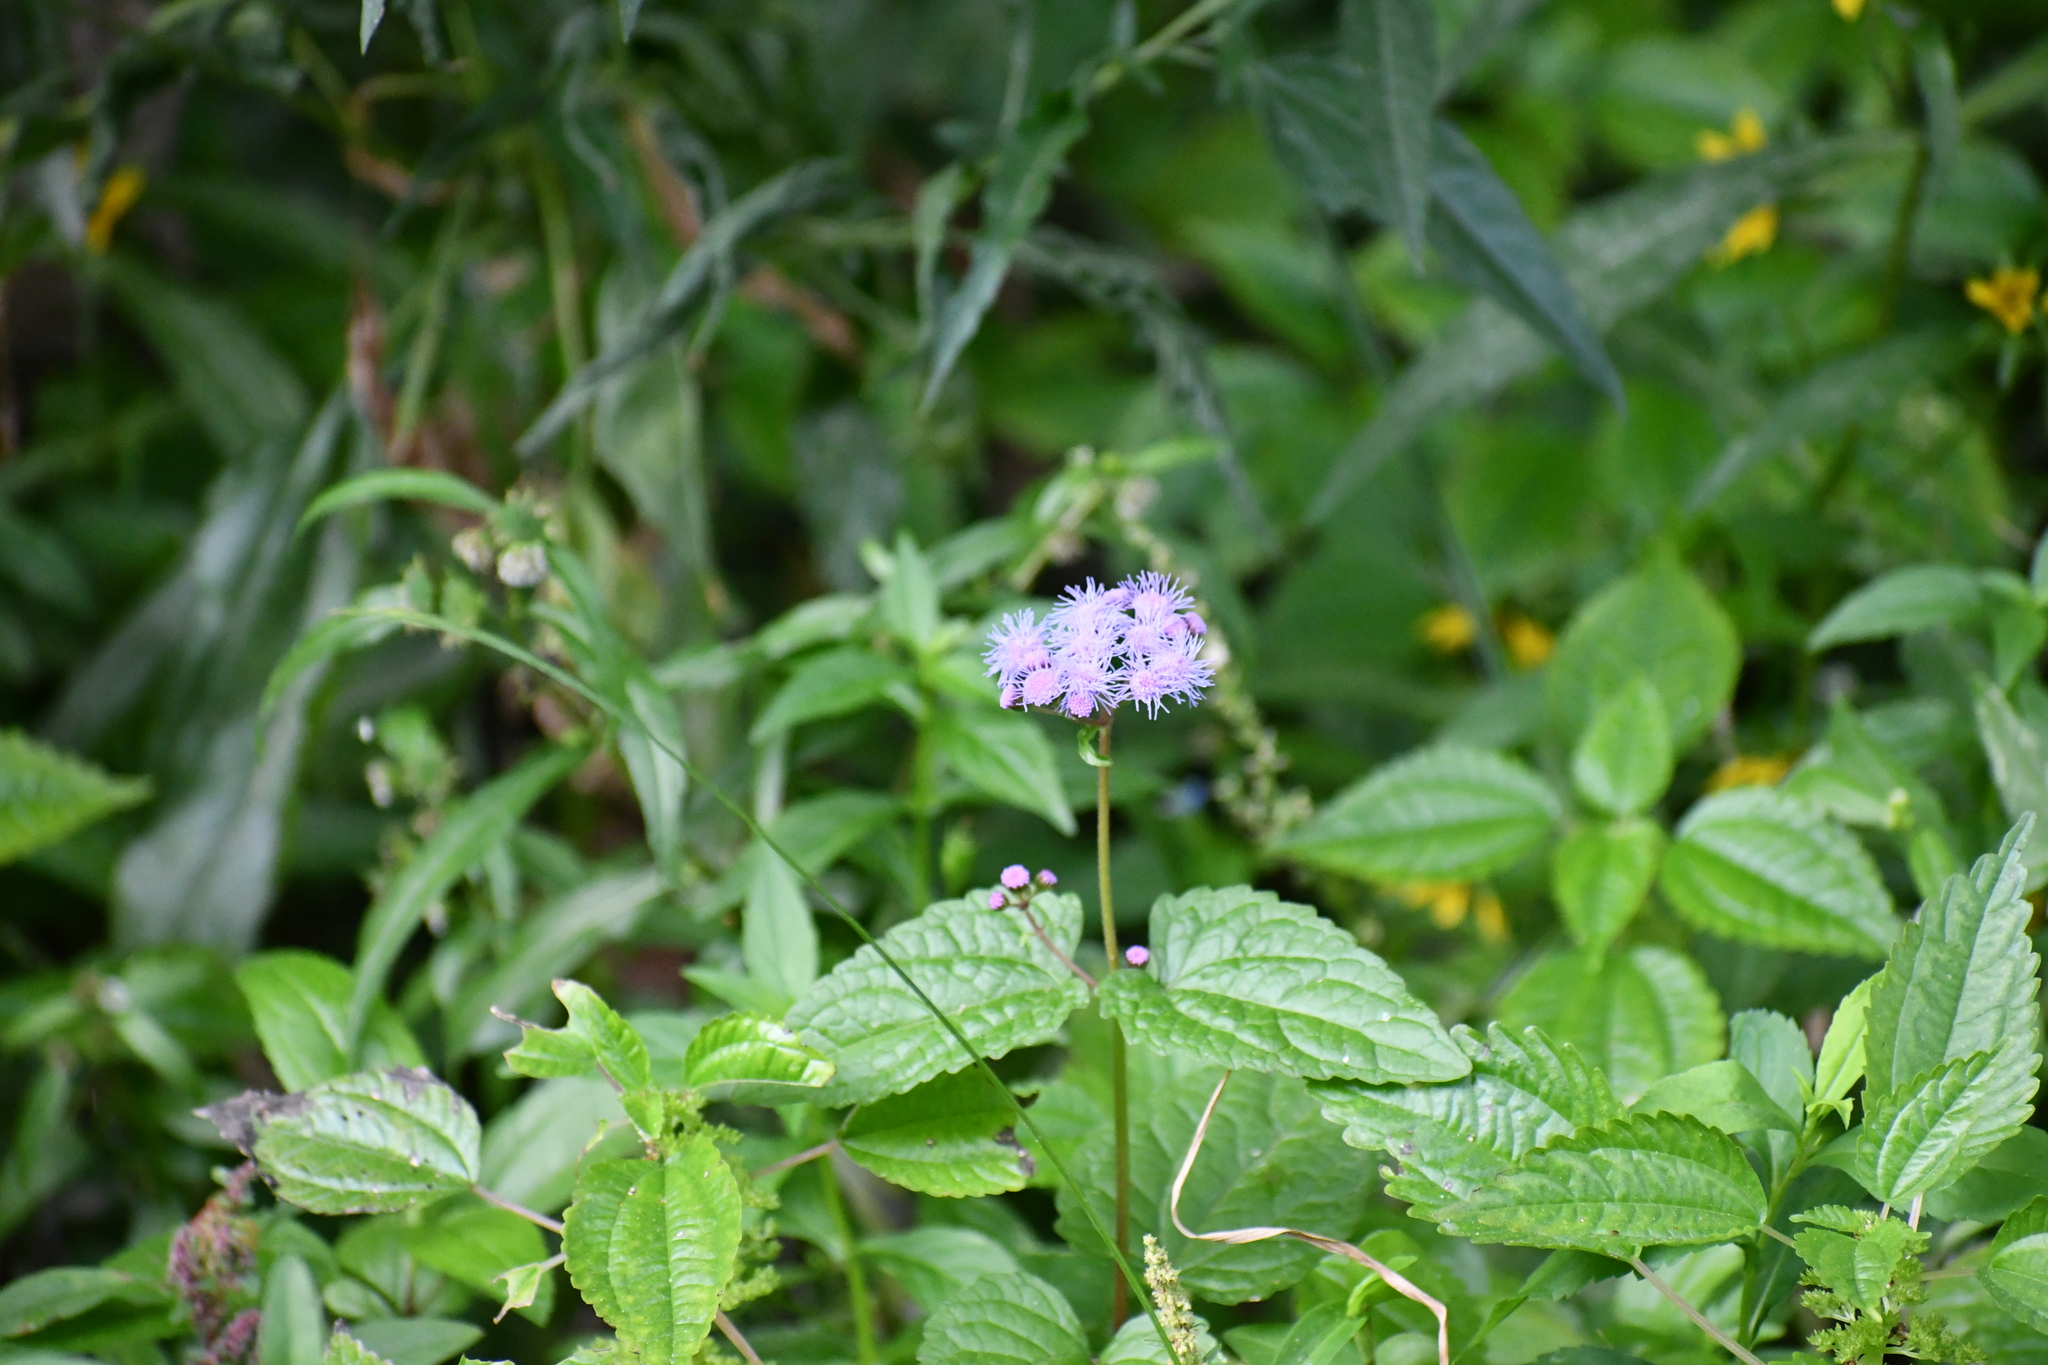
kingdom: Plantae
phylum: Tracheophyta
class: Magnoliopsida
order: Asterales
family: Asteraceae
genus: Conoclinium
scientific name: Conoclinium coelestinum
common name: Blue mistflower
